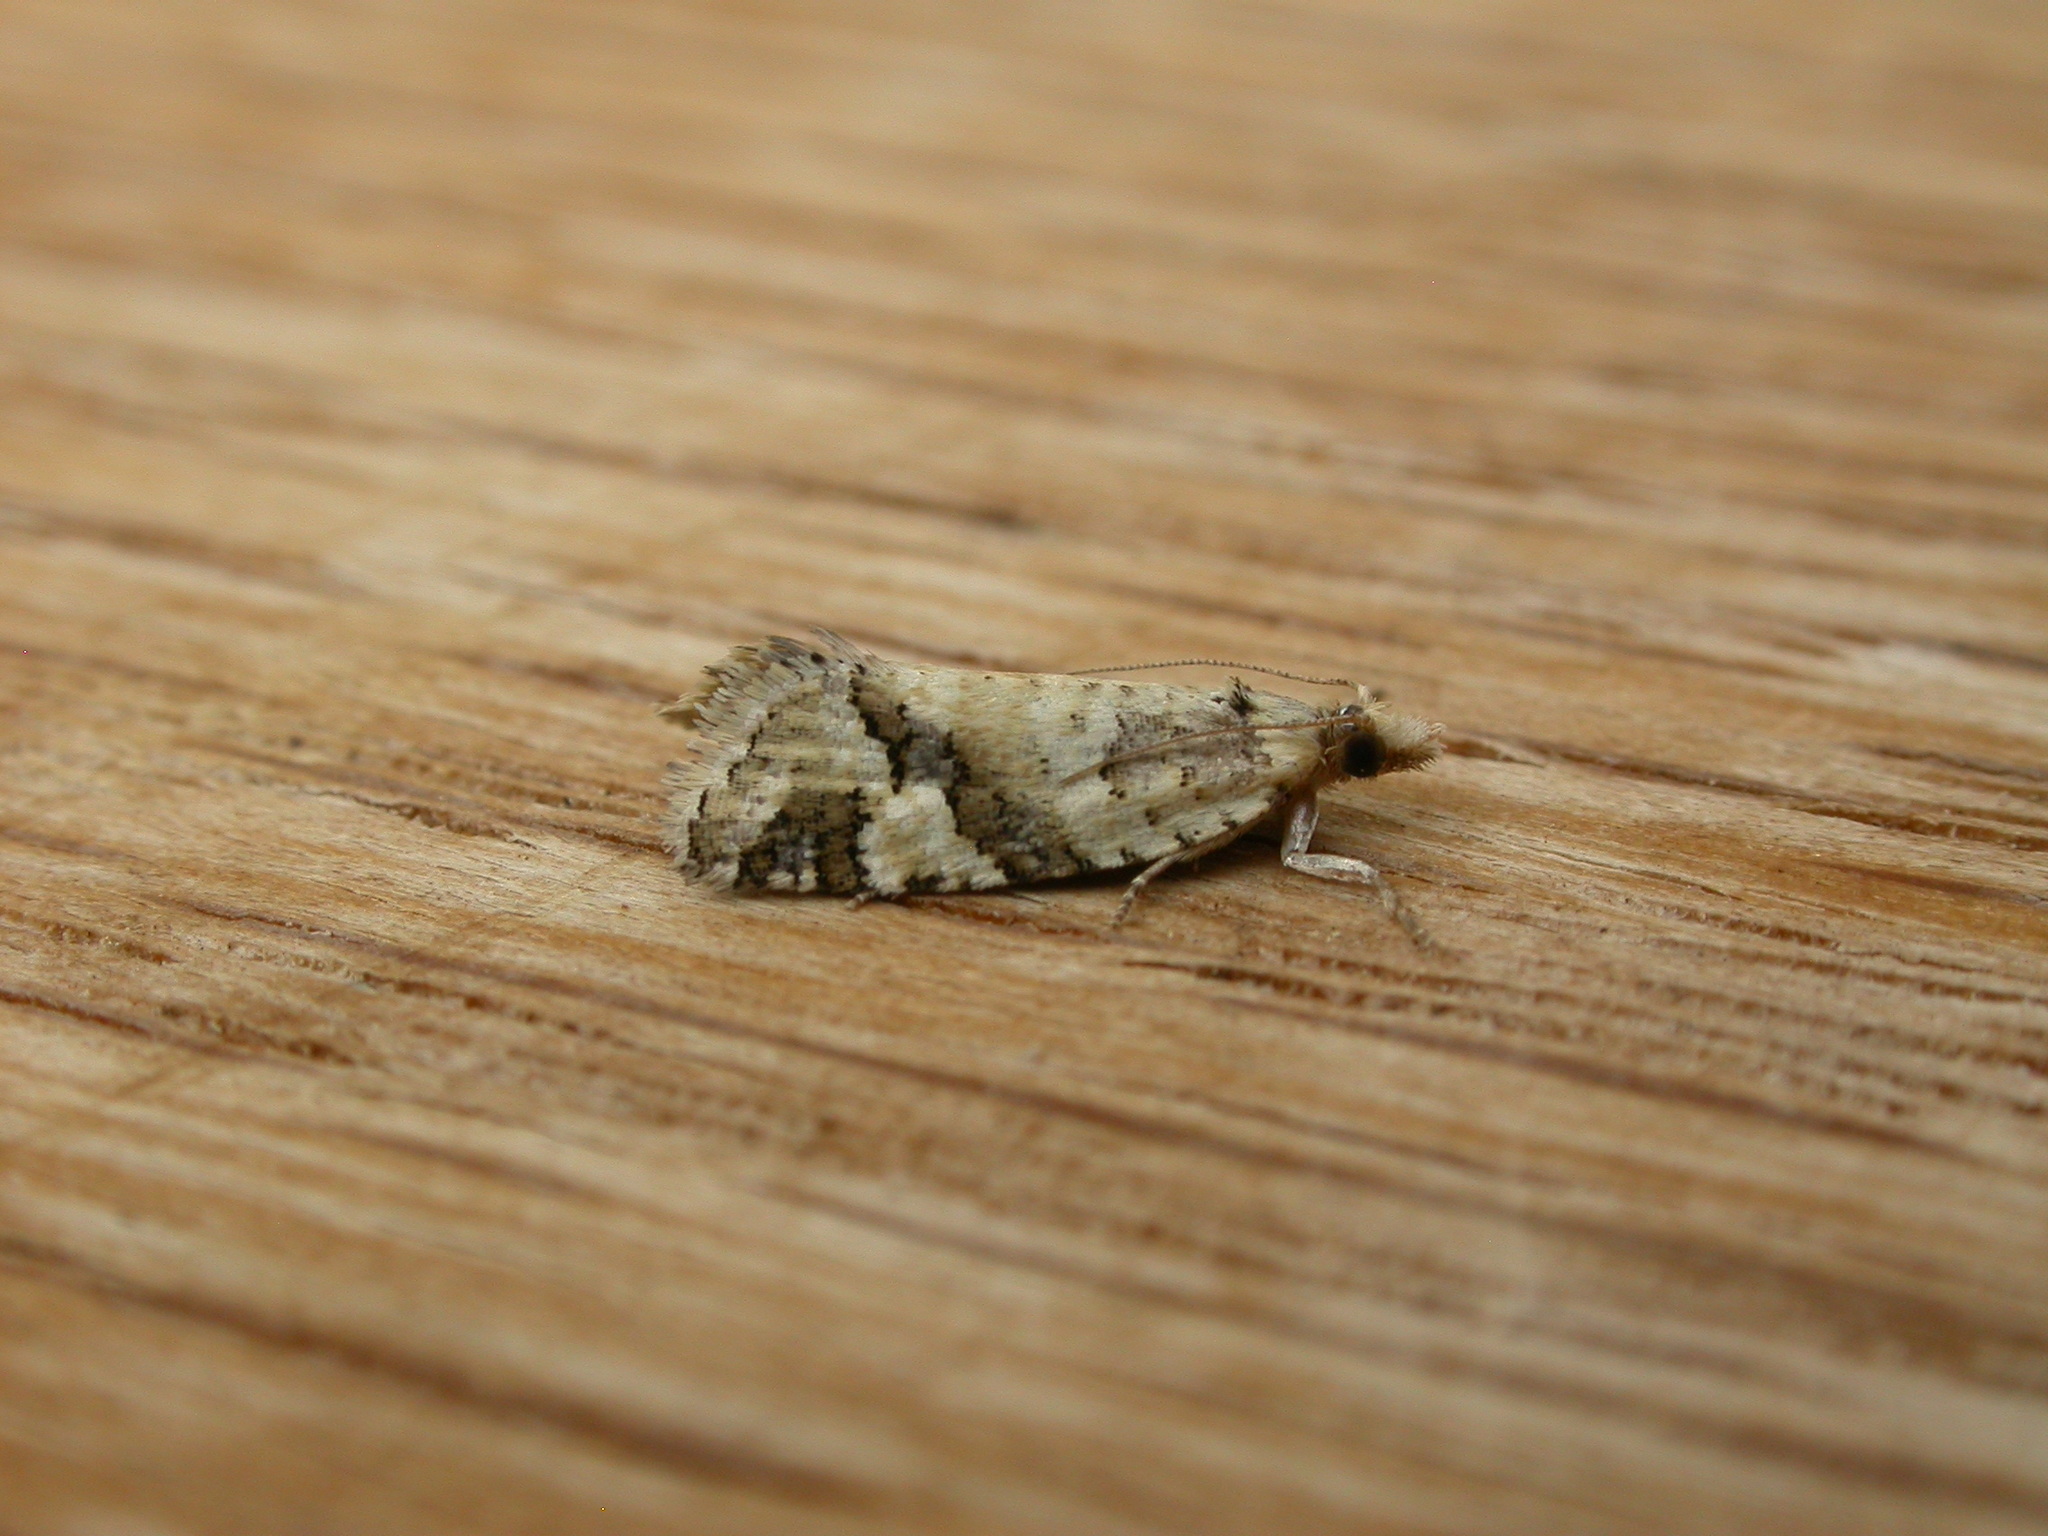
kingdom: Animalia
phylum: Arthropoda
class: Insecta
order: Lepidoptera
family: Tortricidae
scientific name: Tortricidae
